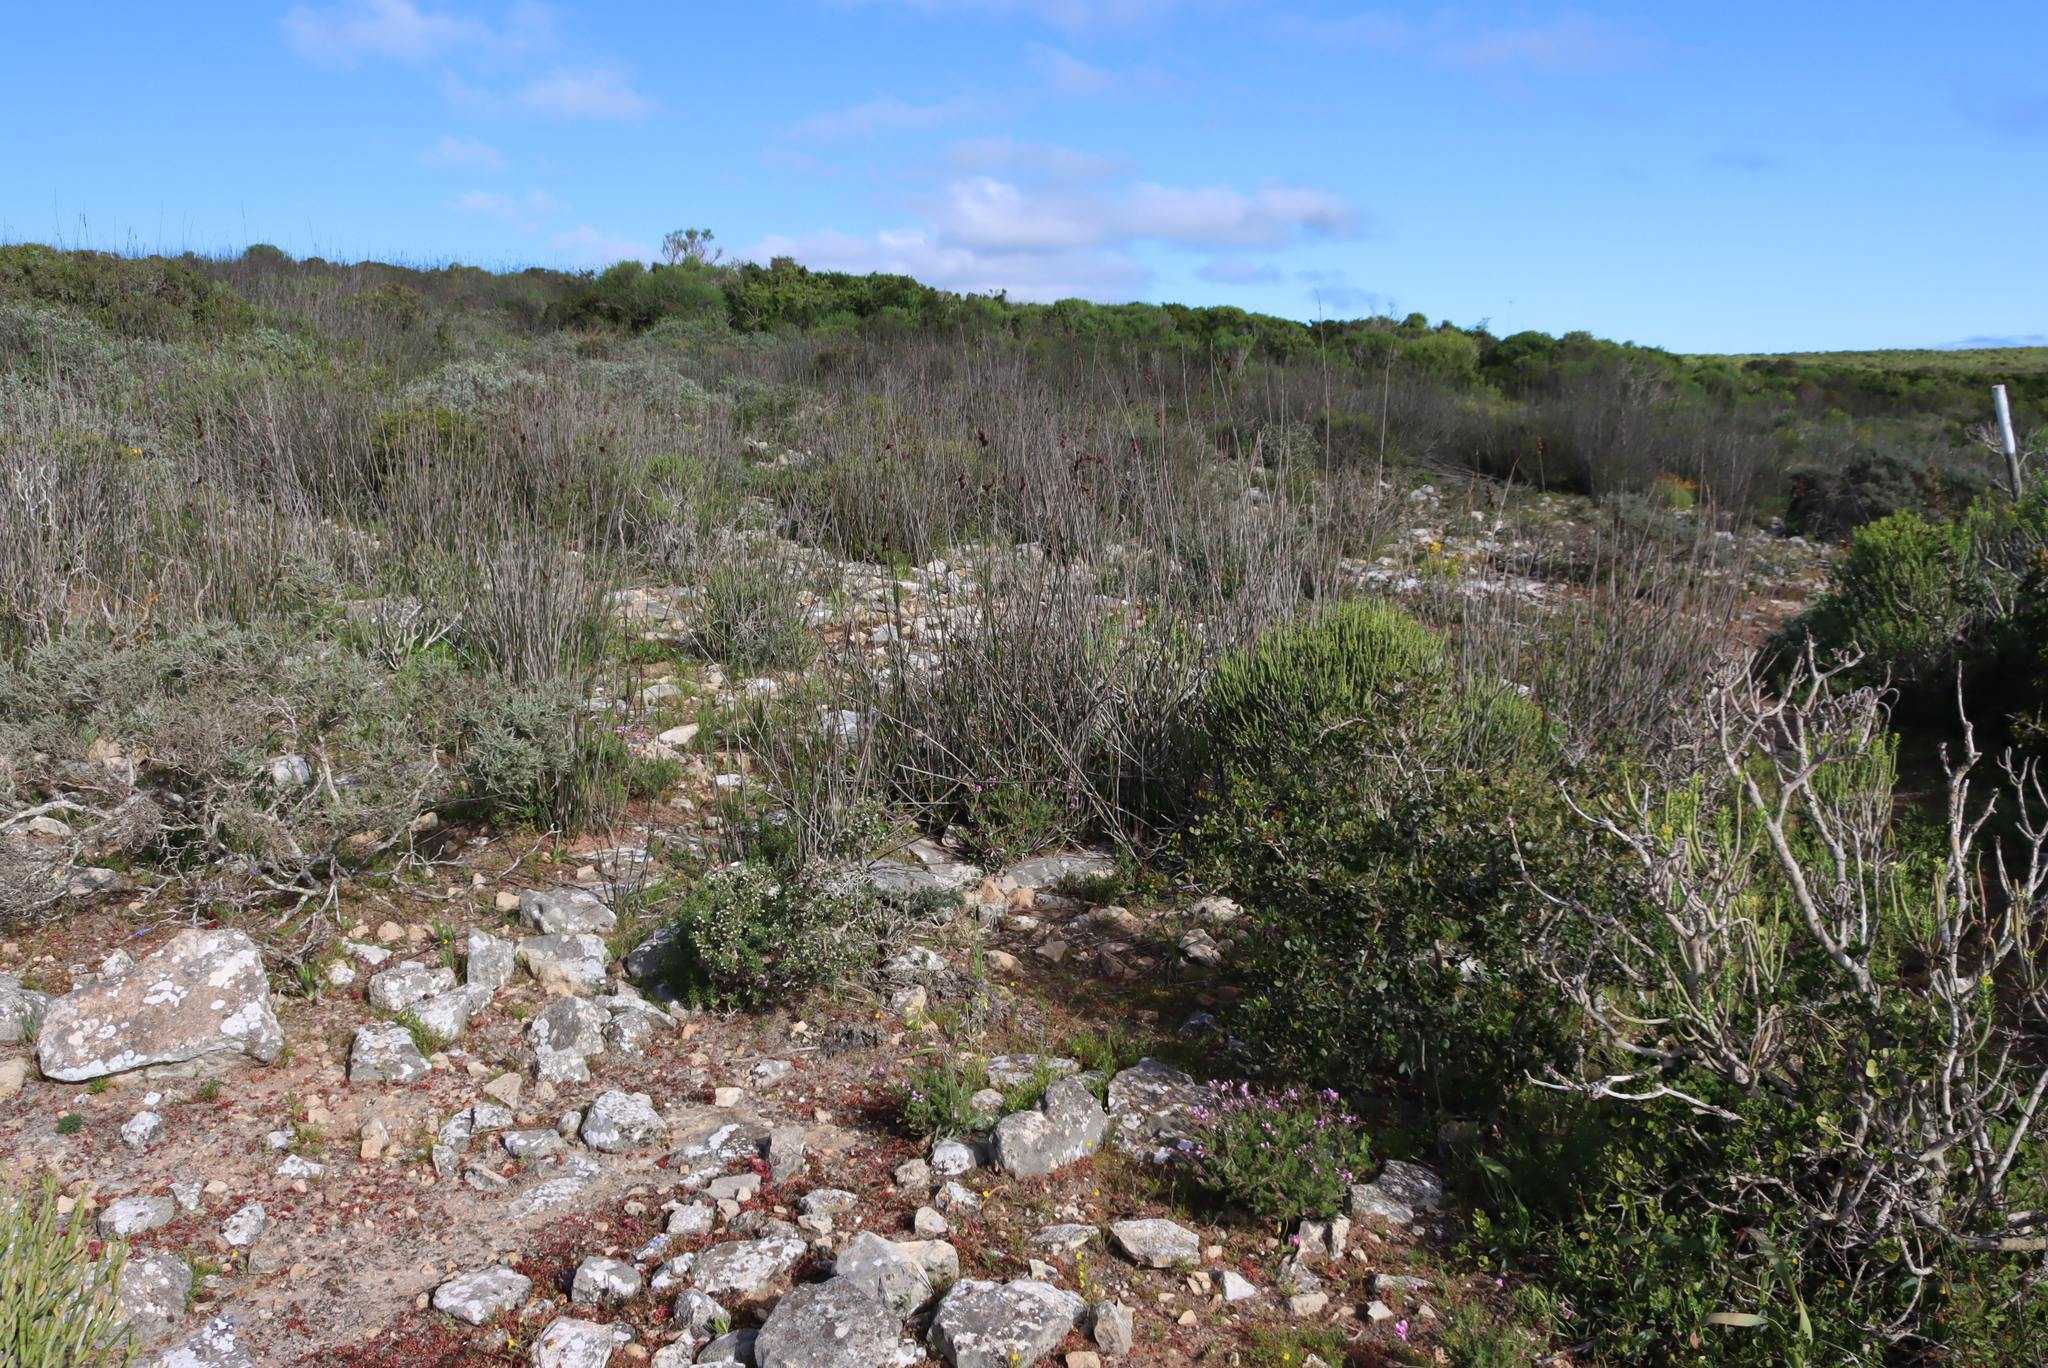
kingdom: Plantae
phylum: Tracheophyta
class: Liliopsida
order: Poales
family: Restionaceae
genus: Thamnochortus
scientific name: Thamnochortus spicigerus
